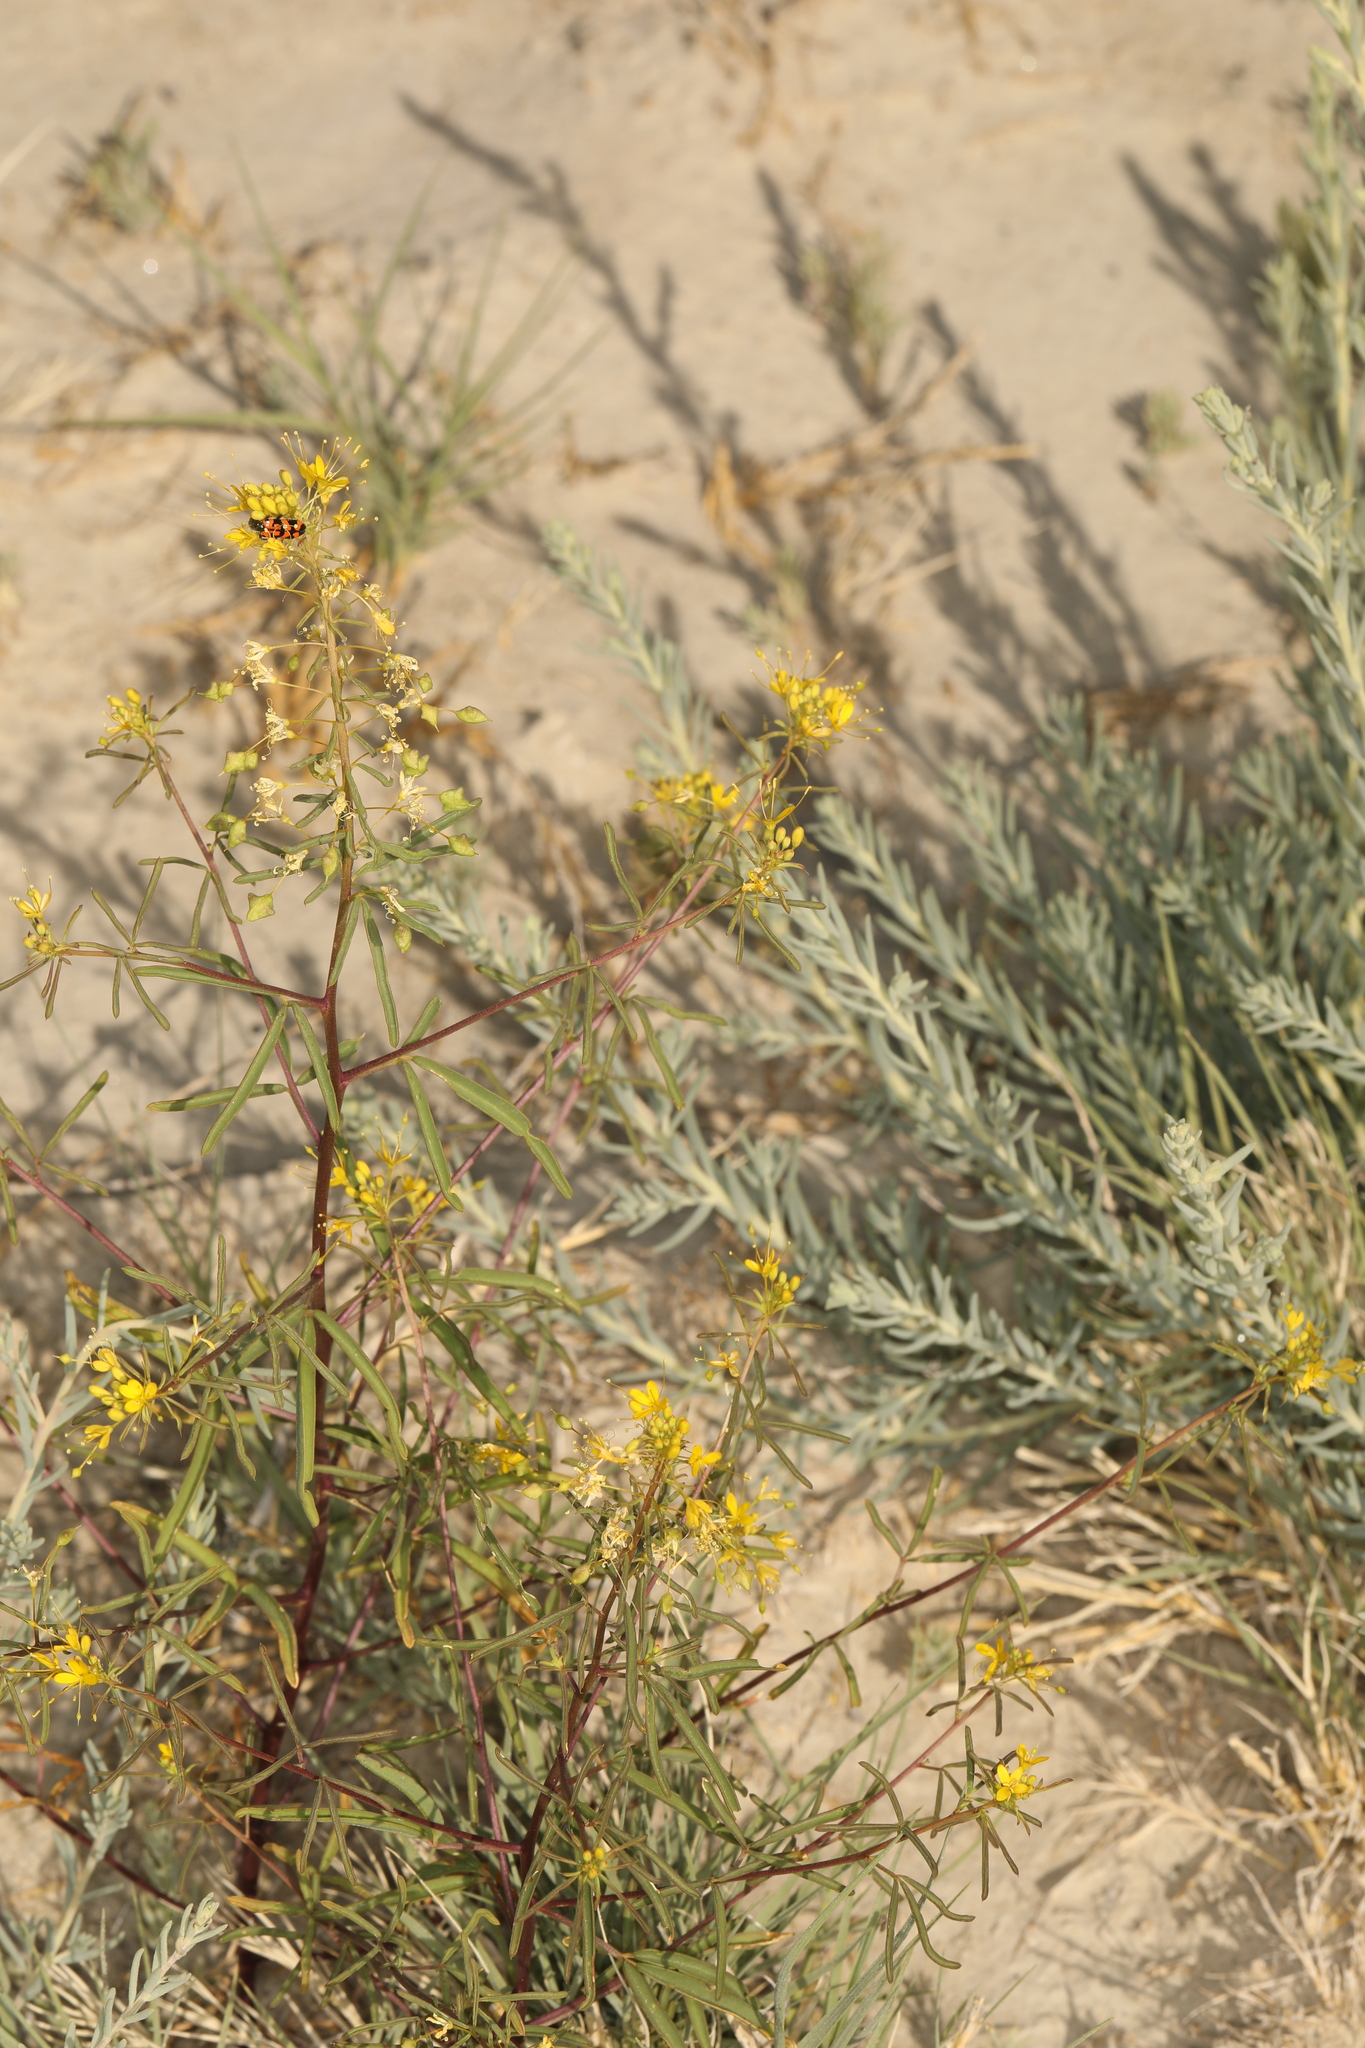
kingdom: Plantae
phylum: Tracheophyta
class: Magnoliopsida
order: Brassicales
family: Cleomaceae
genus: Cleomella
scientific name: Cleomella plocasperma
